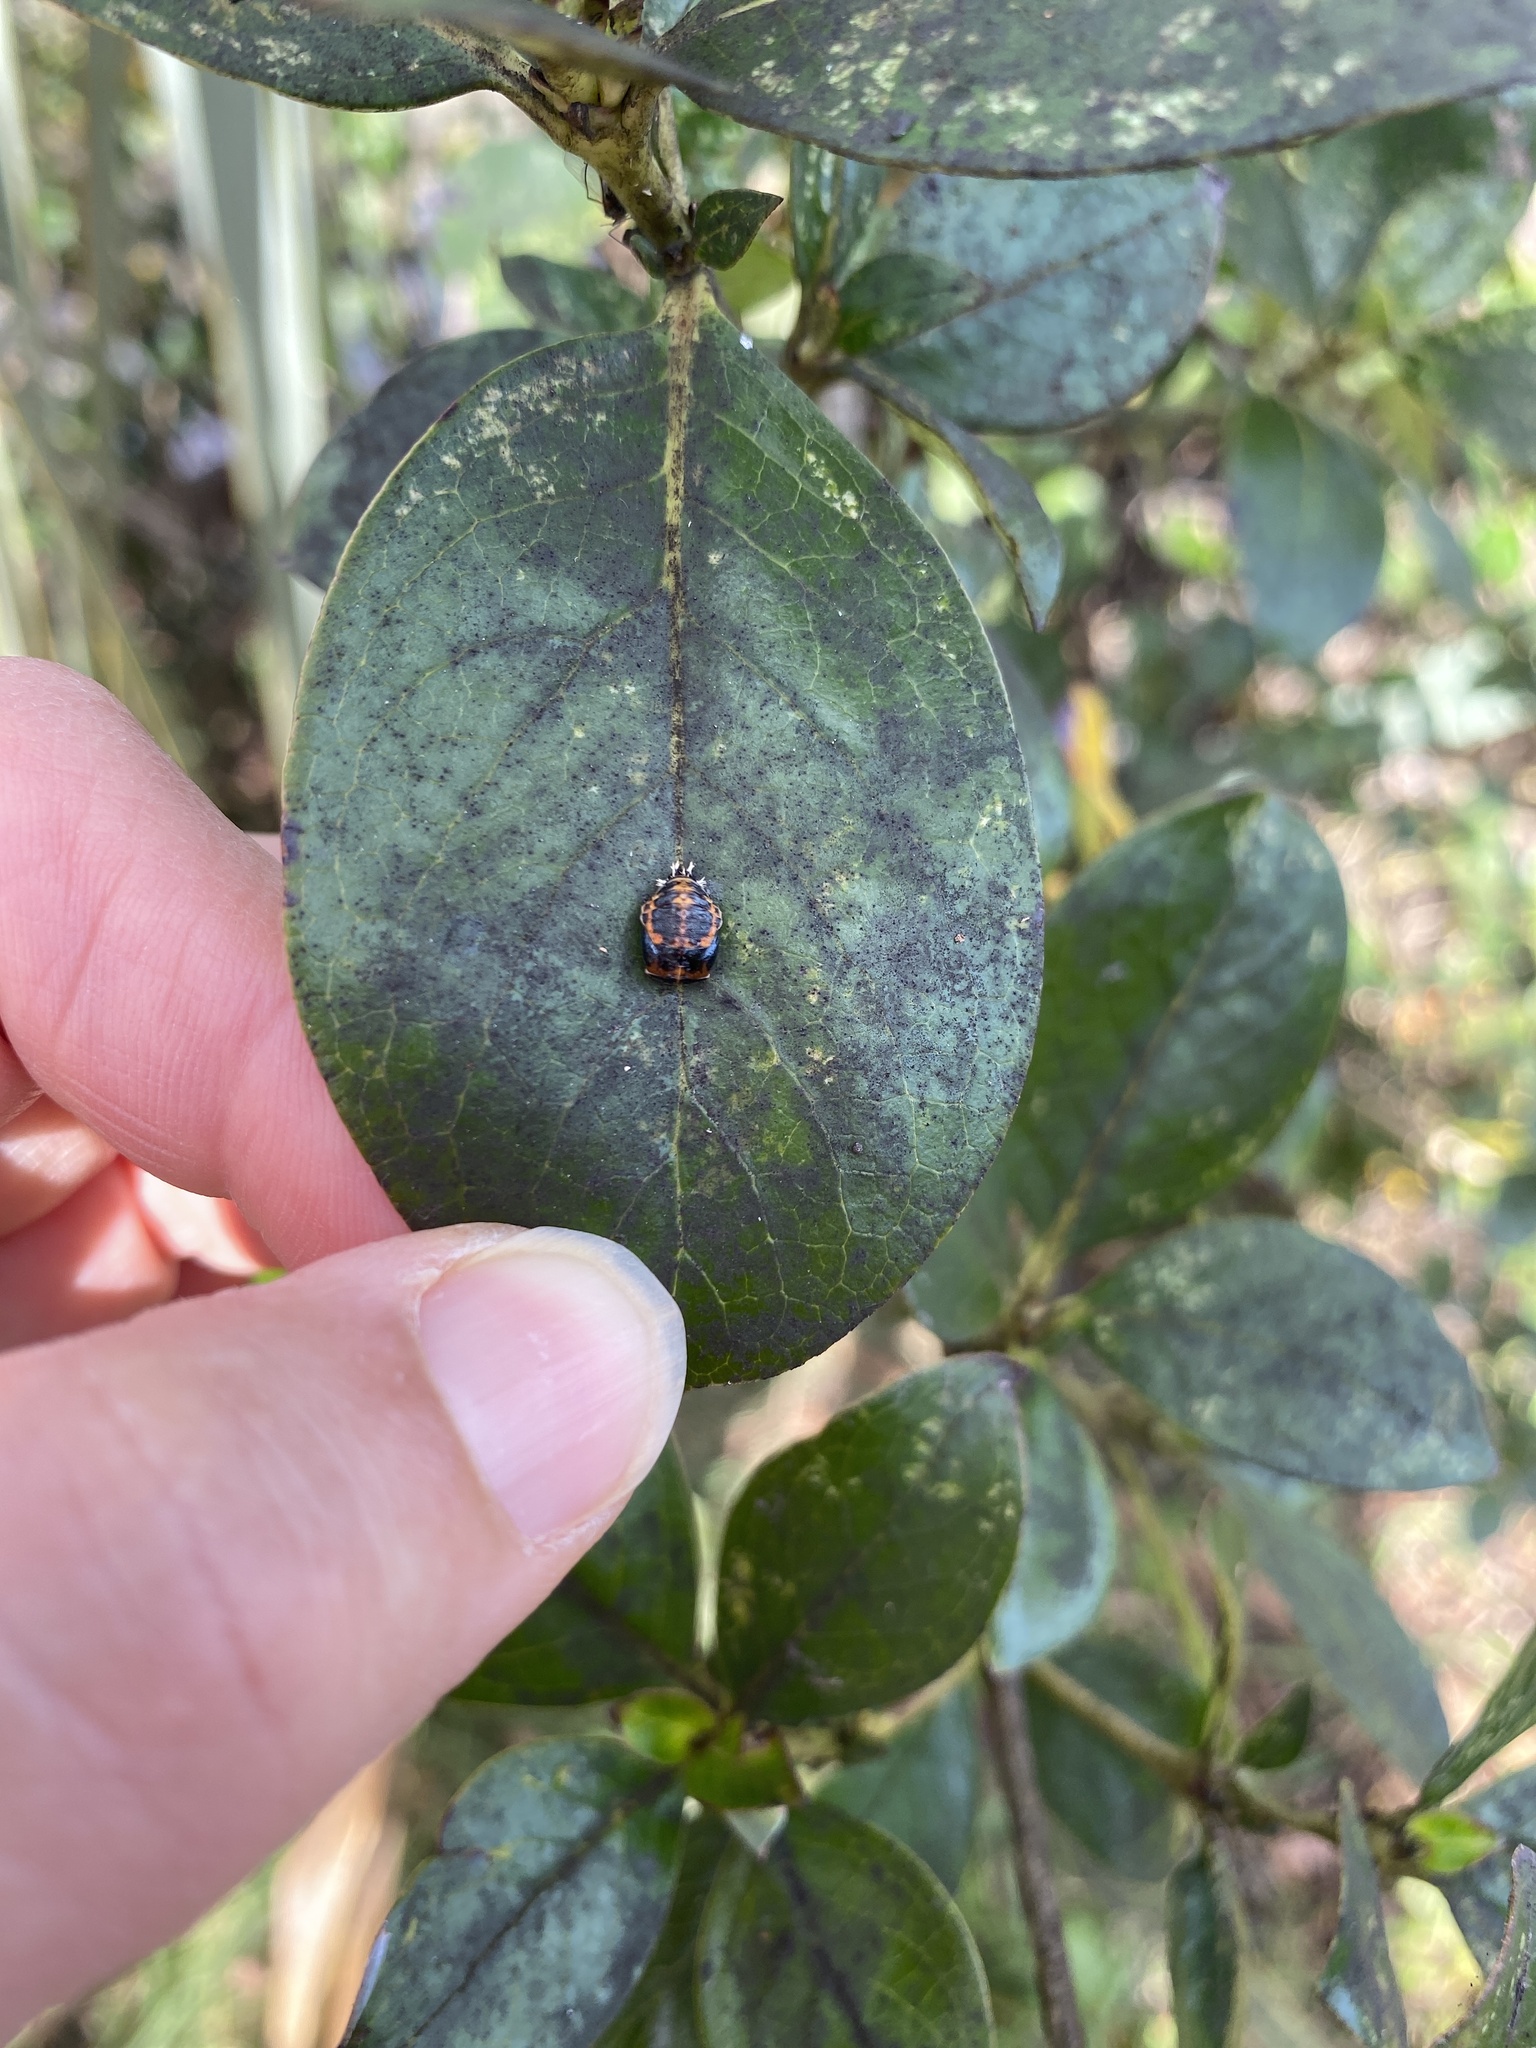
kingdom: Animalia
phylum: Arthropoda
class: Insecta
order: Coleoptera
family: Coccinellidae
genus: Harmonia
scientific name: Harmonia axyridis
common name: Harlequin ladybird
